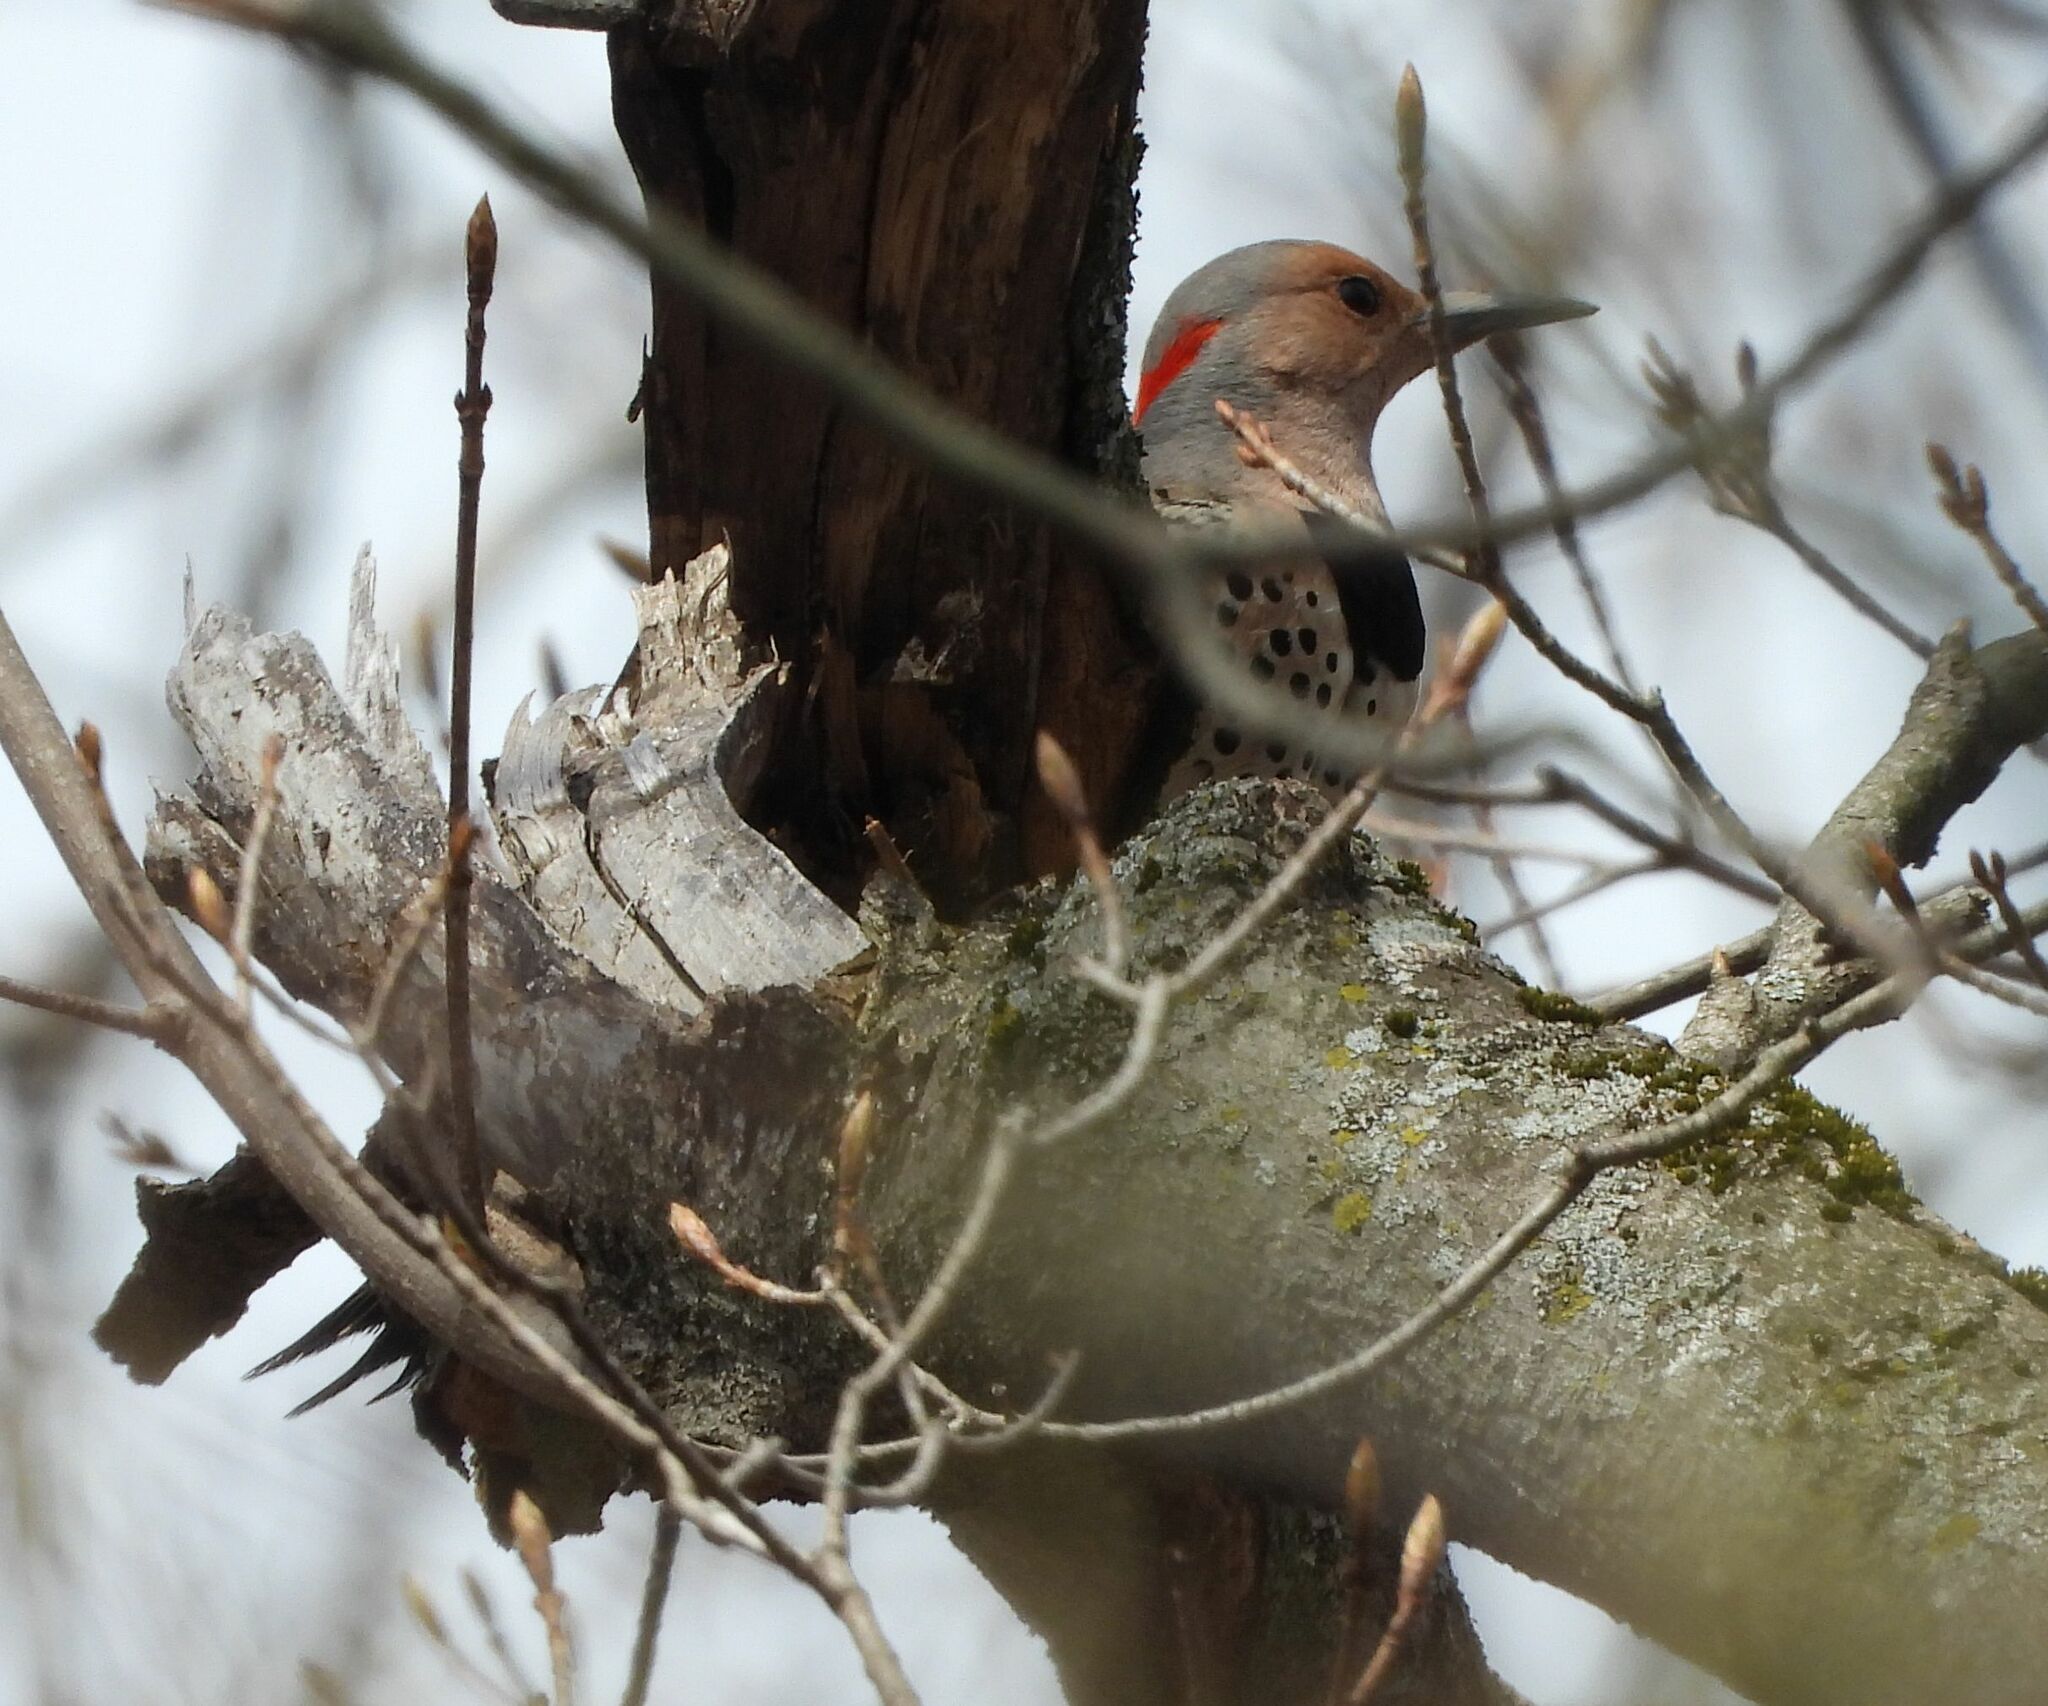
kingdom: Animalia
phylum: Chordata
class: Aves
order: Piciformes
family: Picidae
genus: Colaptes
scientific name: Colaptes auratus
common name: Northern flicker
